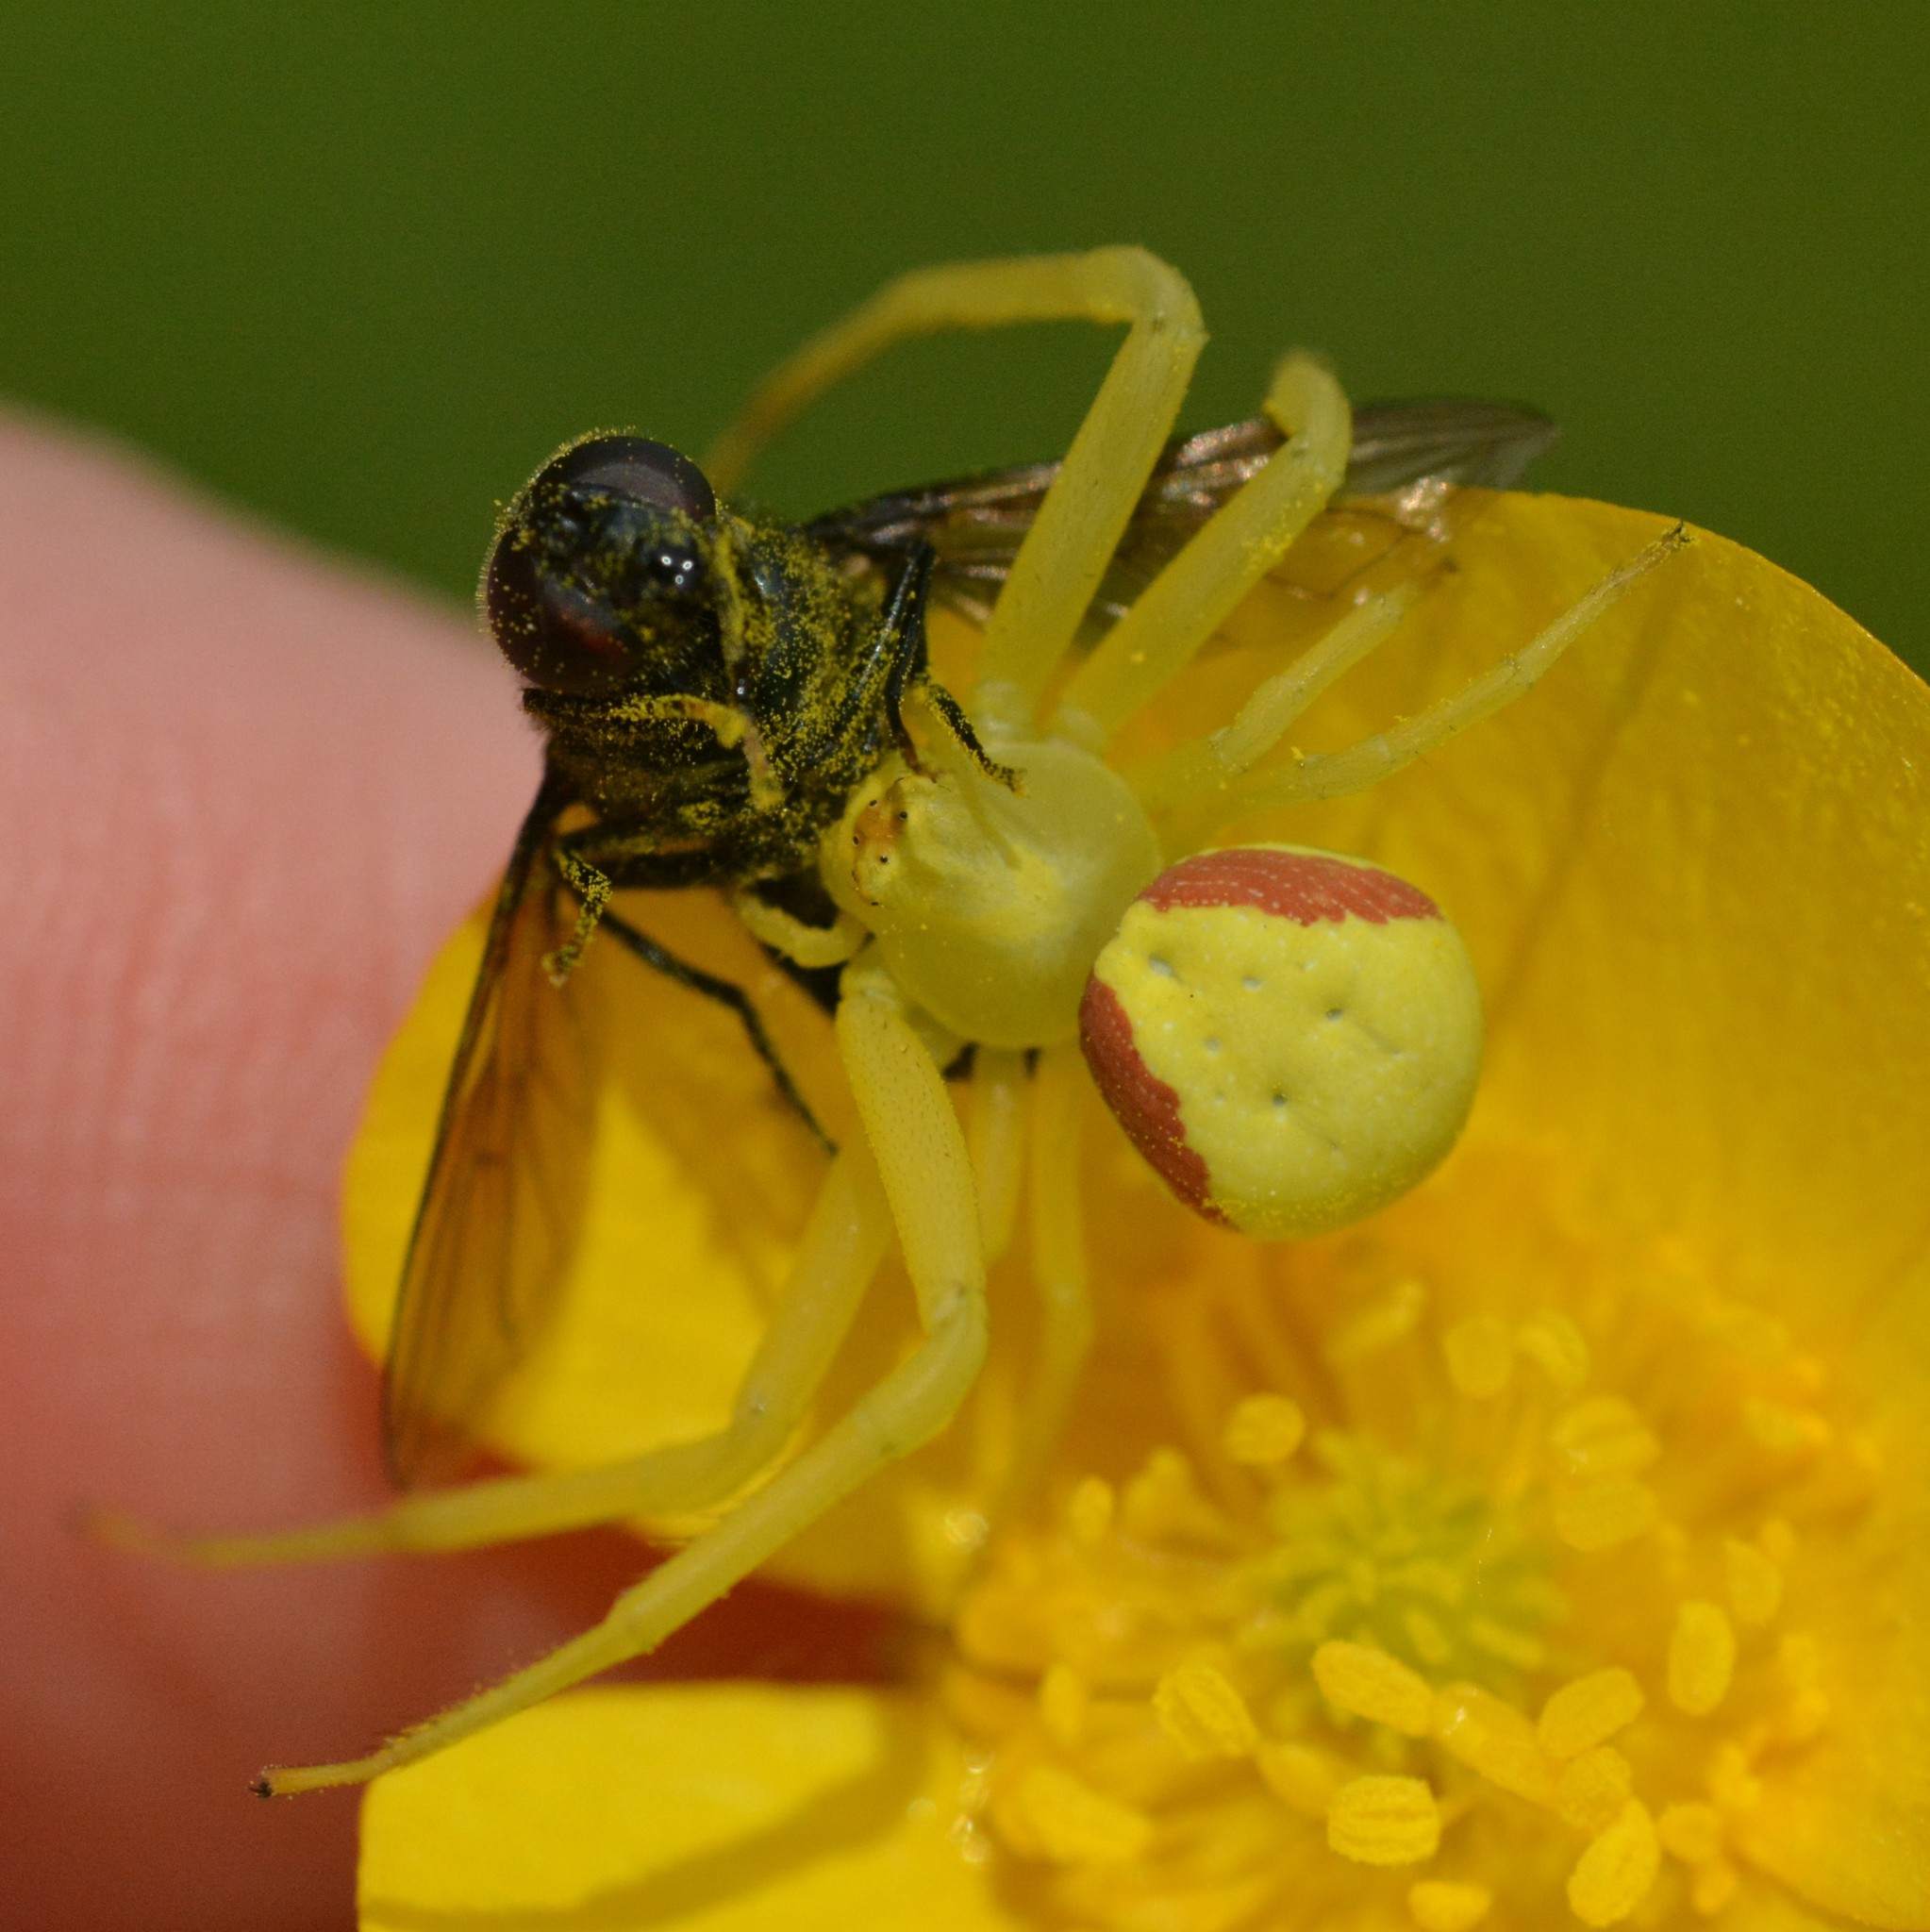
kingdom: Animalia
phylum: Arthropoda
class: Arachnida
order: Araneae
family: Thomisidae
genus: Misumena
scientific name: Misumena vatia
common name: Goldenrod crab spider
